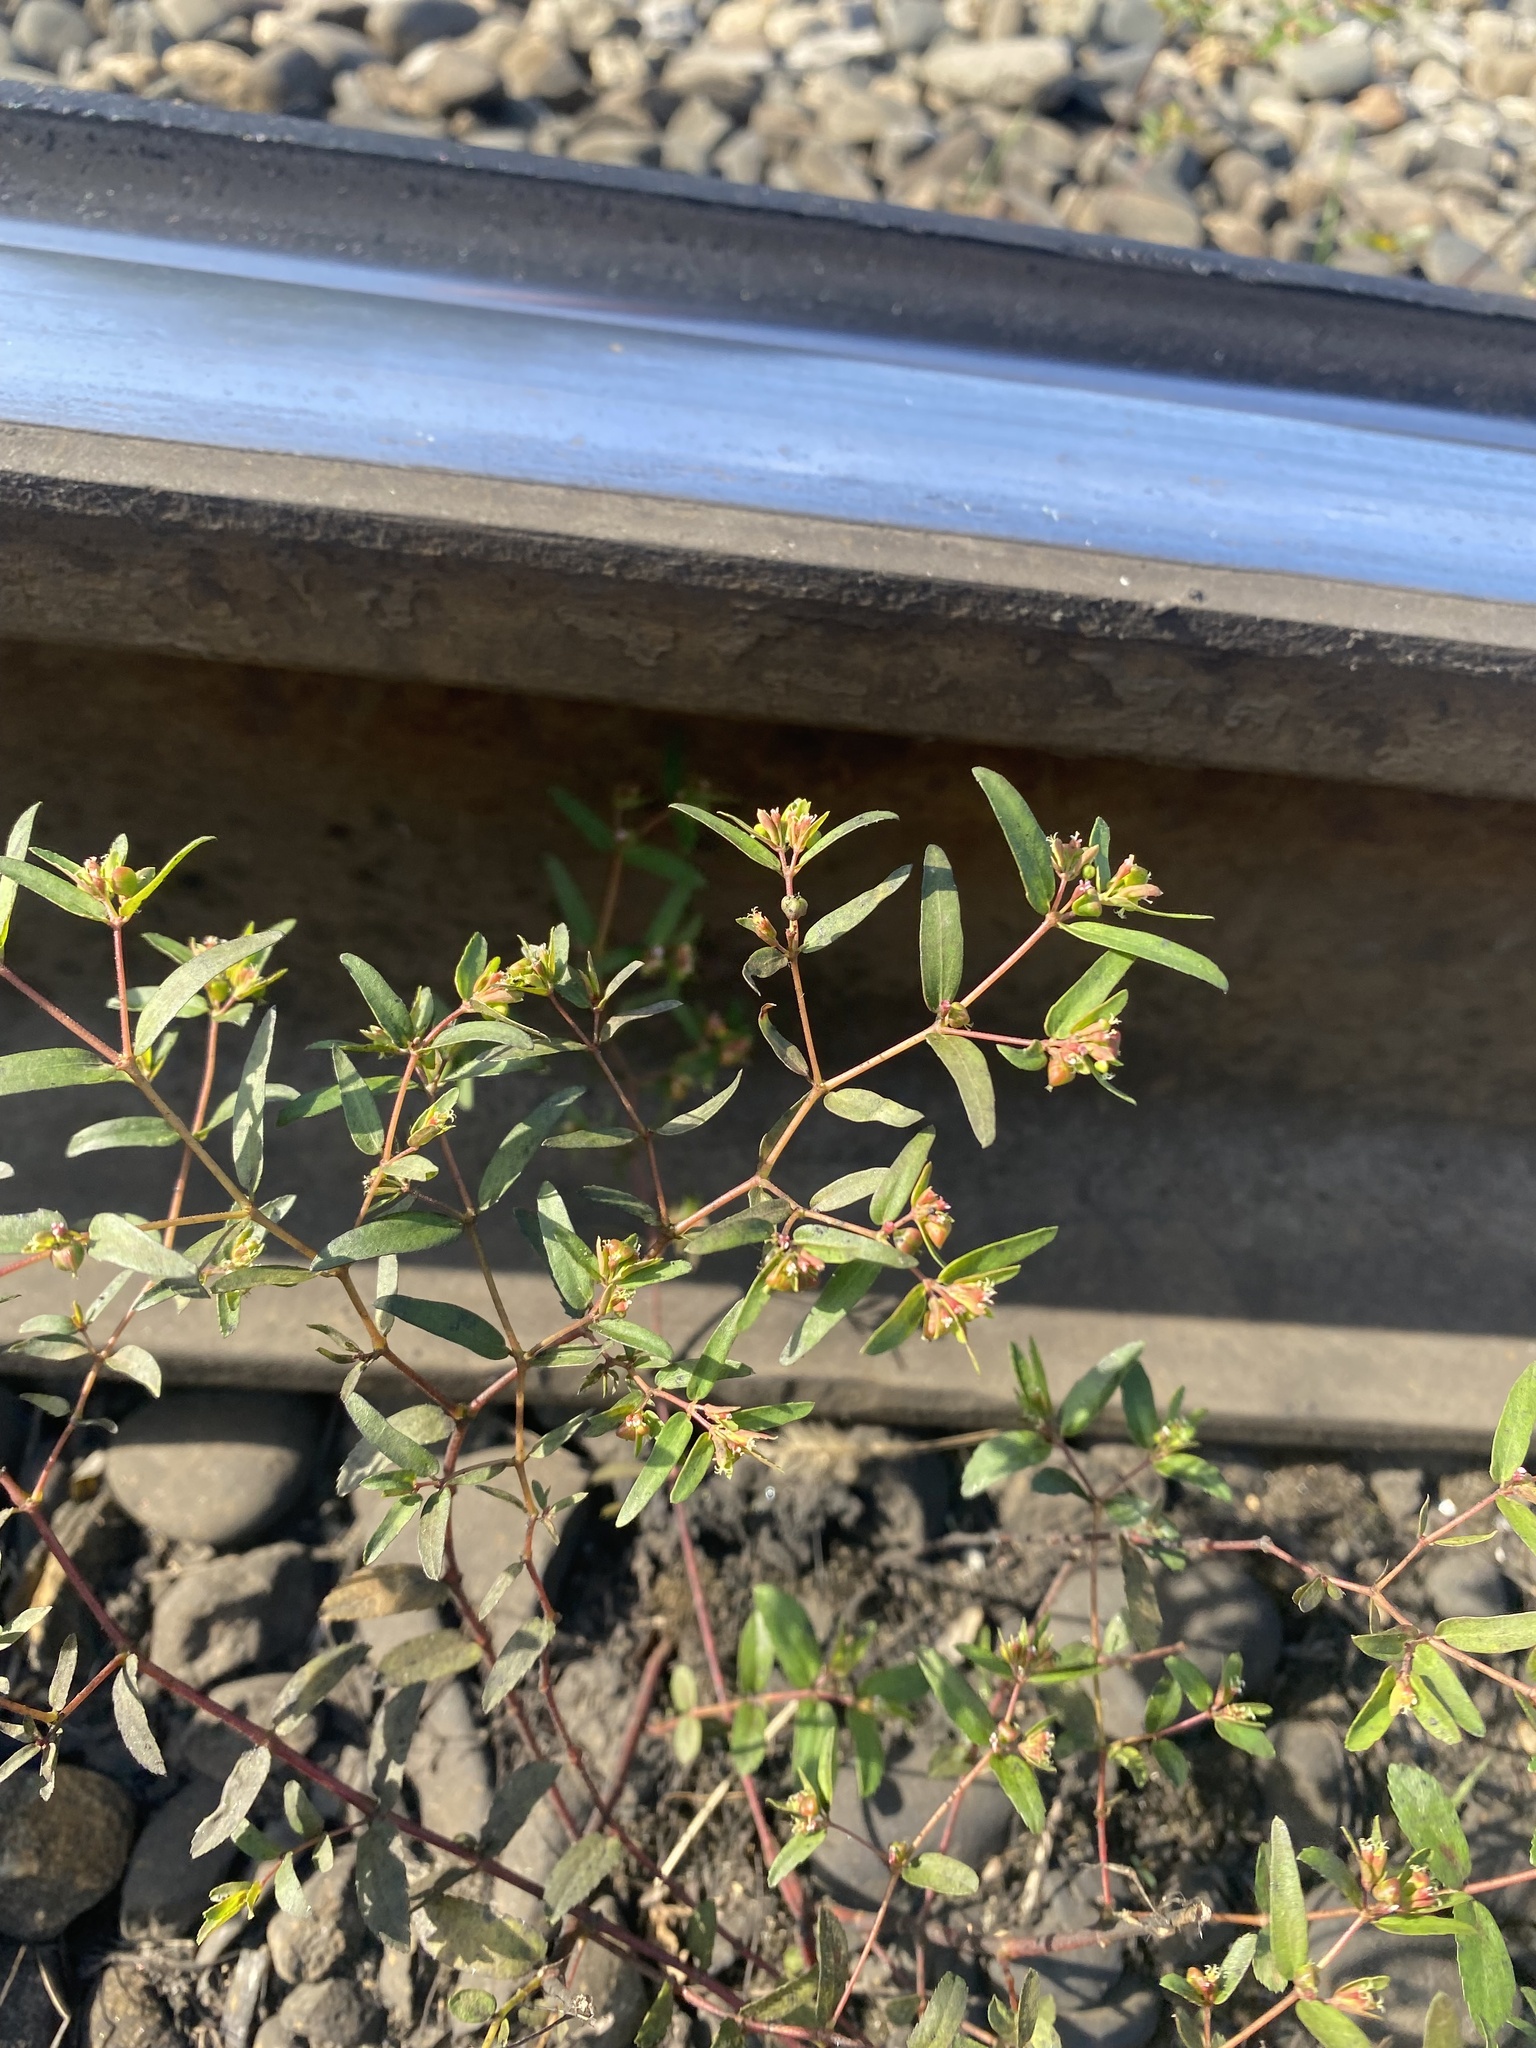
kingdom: Plantae
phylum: Tracheophyta
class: Magnoliopsida
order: Malpighiales
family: Euphorbiaceae
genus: Euphorbia
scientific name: Euphorbia nutans
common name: Eyebane
